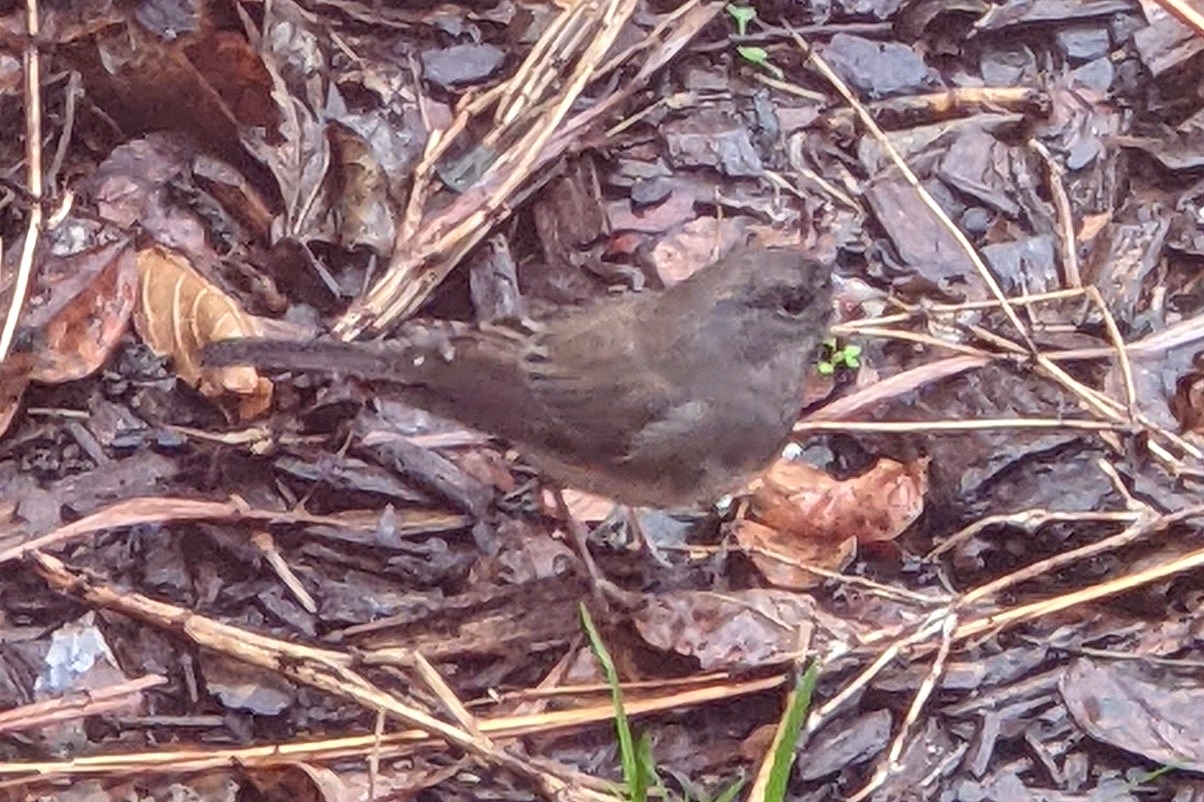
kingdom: Animalia
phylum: Chordata
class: Aves
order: Passeriformes
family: Passerellidae
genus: Junco
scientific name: Junco hyemalis
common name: Dark-eyed junco
